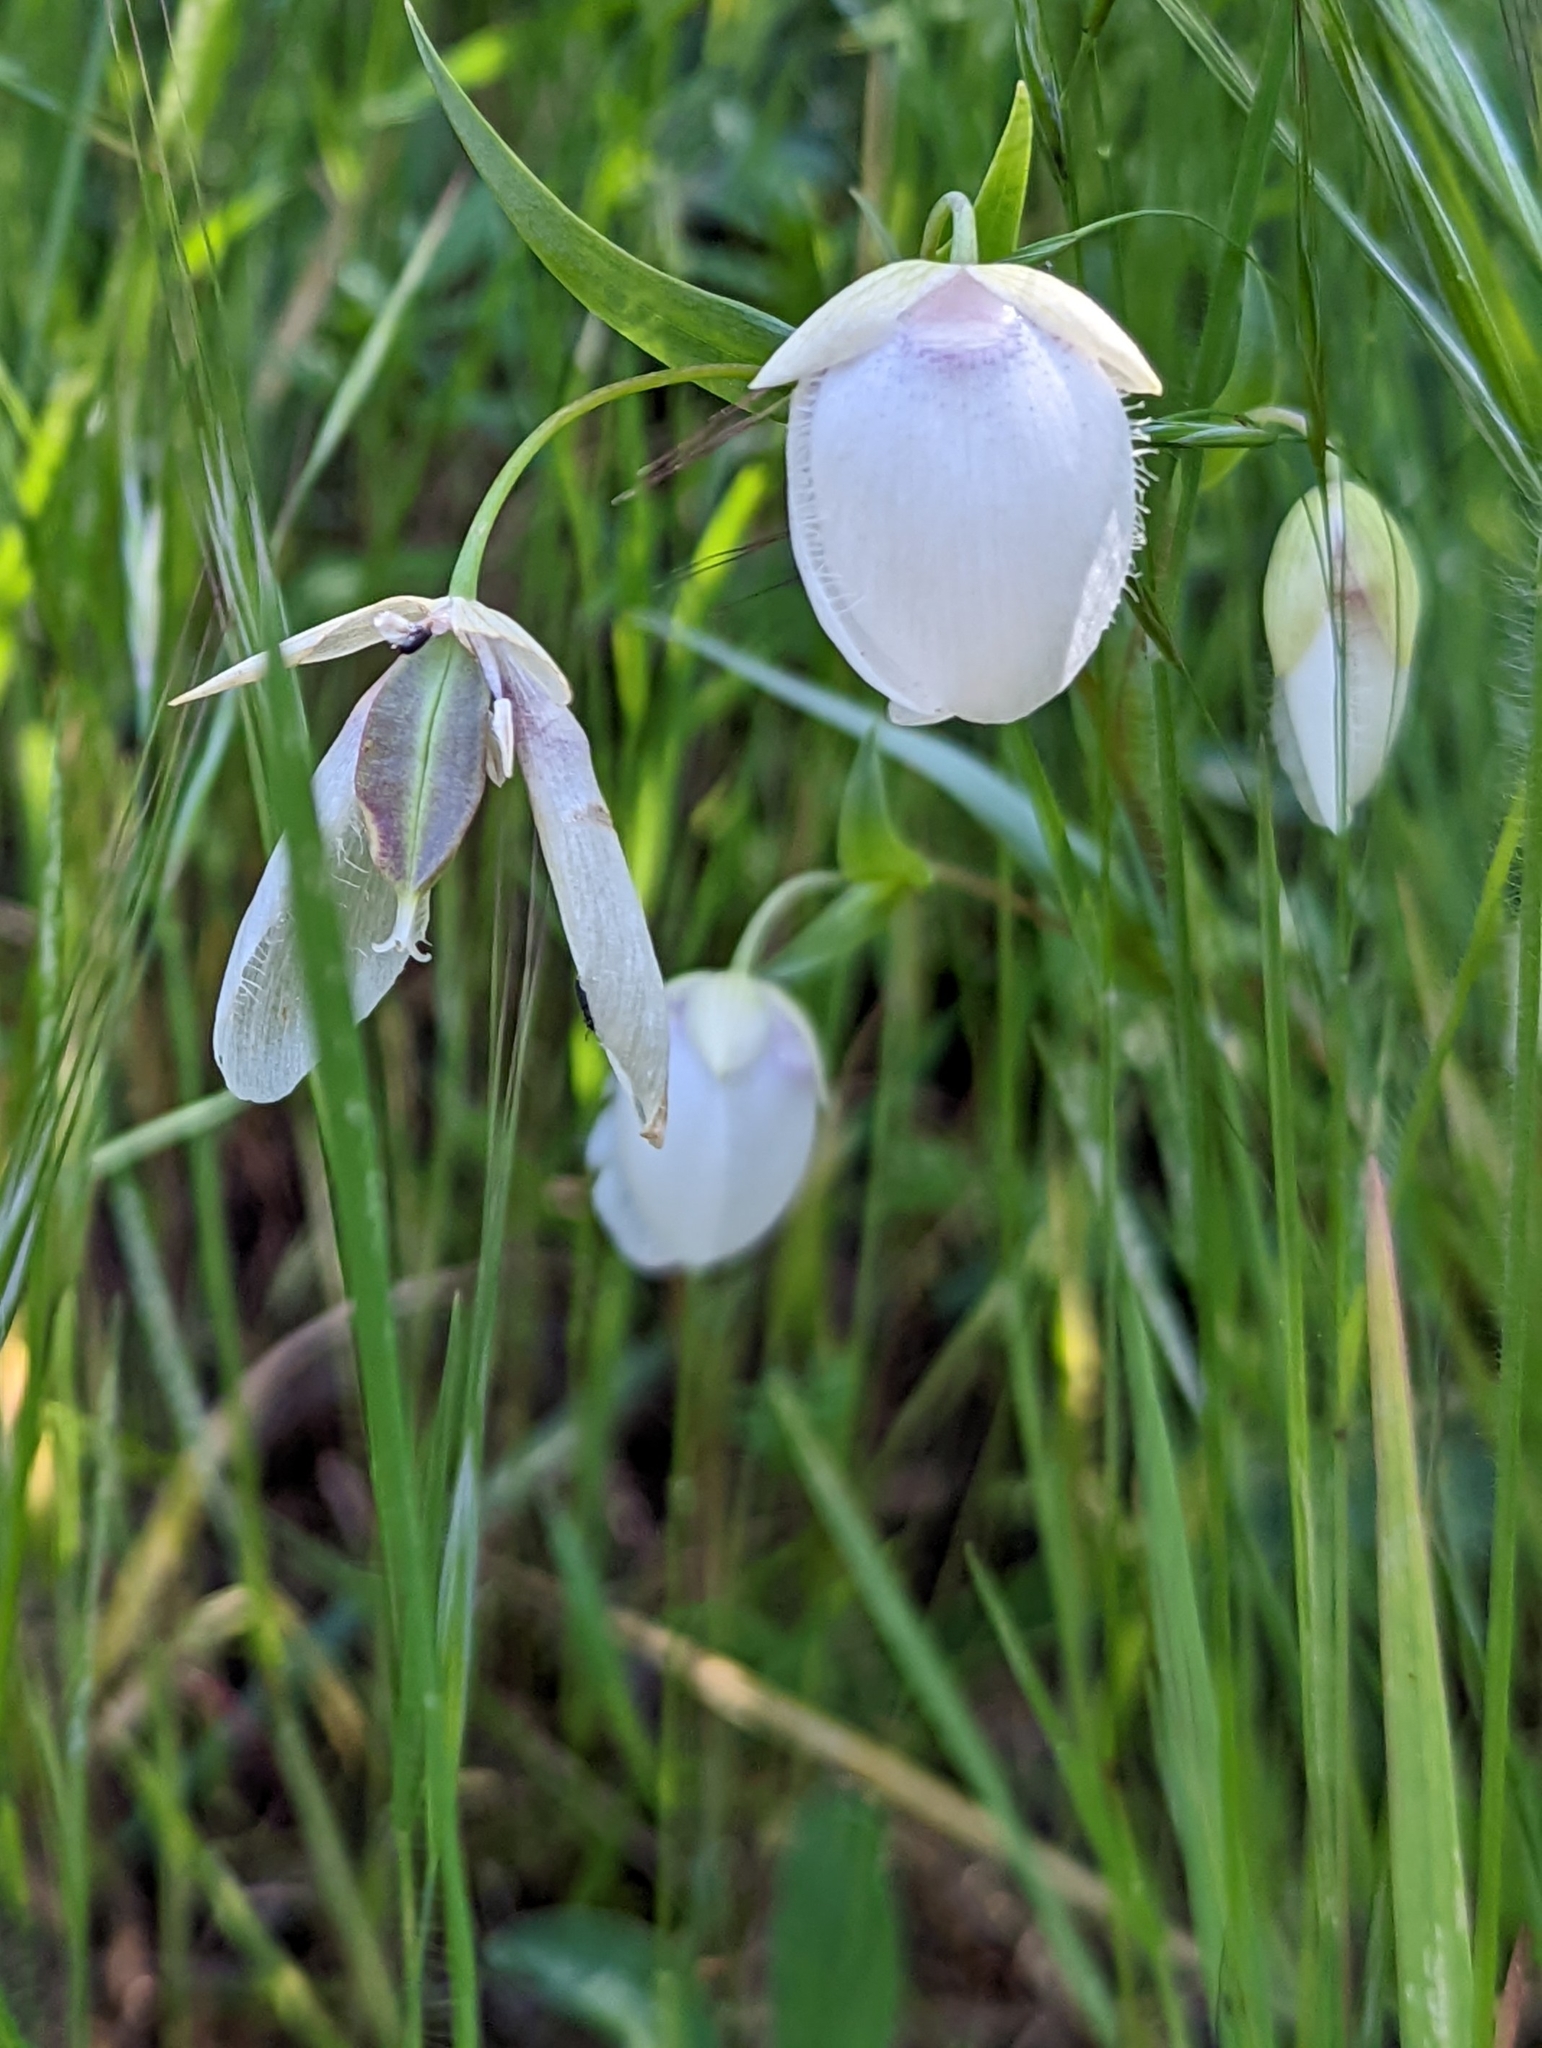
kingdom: Plantae
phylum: Tracheophyta
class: Liliopsida
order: Liliales
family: Liliaceae
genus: Calochortus
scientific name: Calochortus albus
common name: Fairy-lantern
